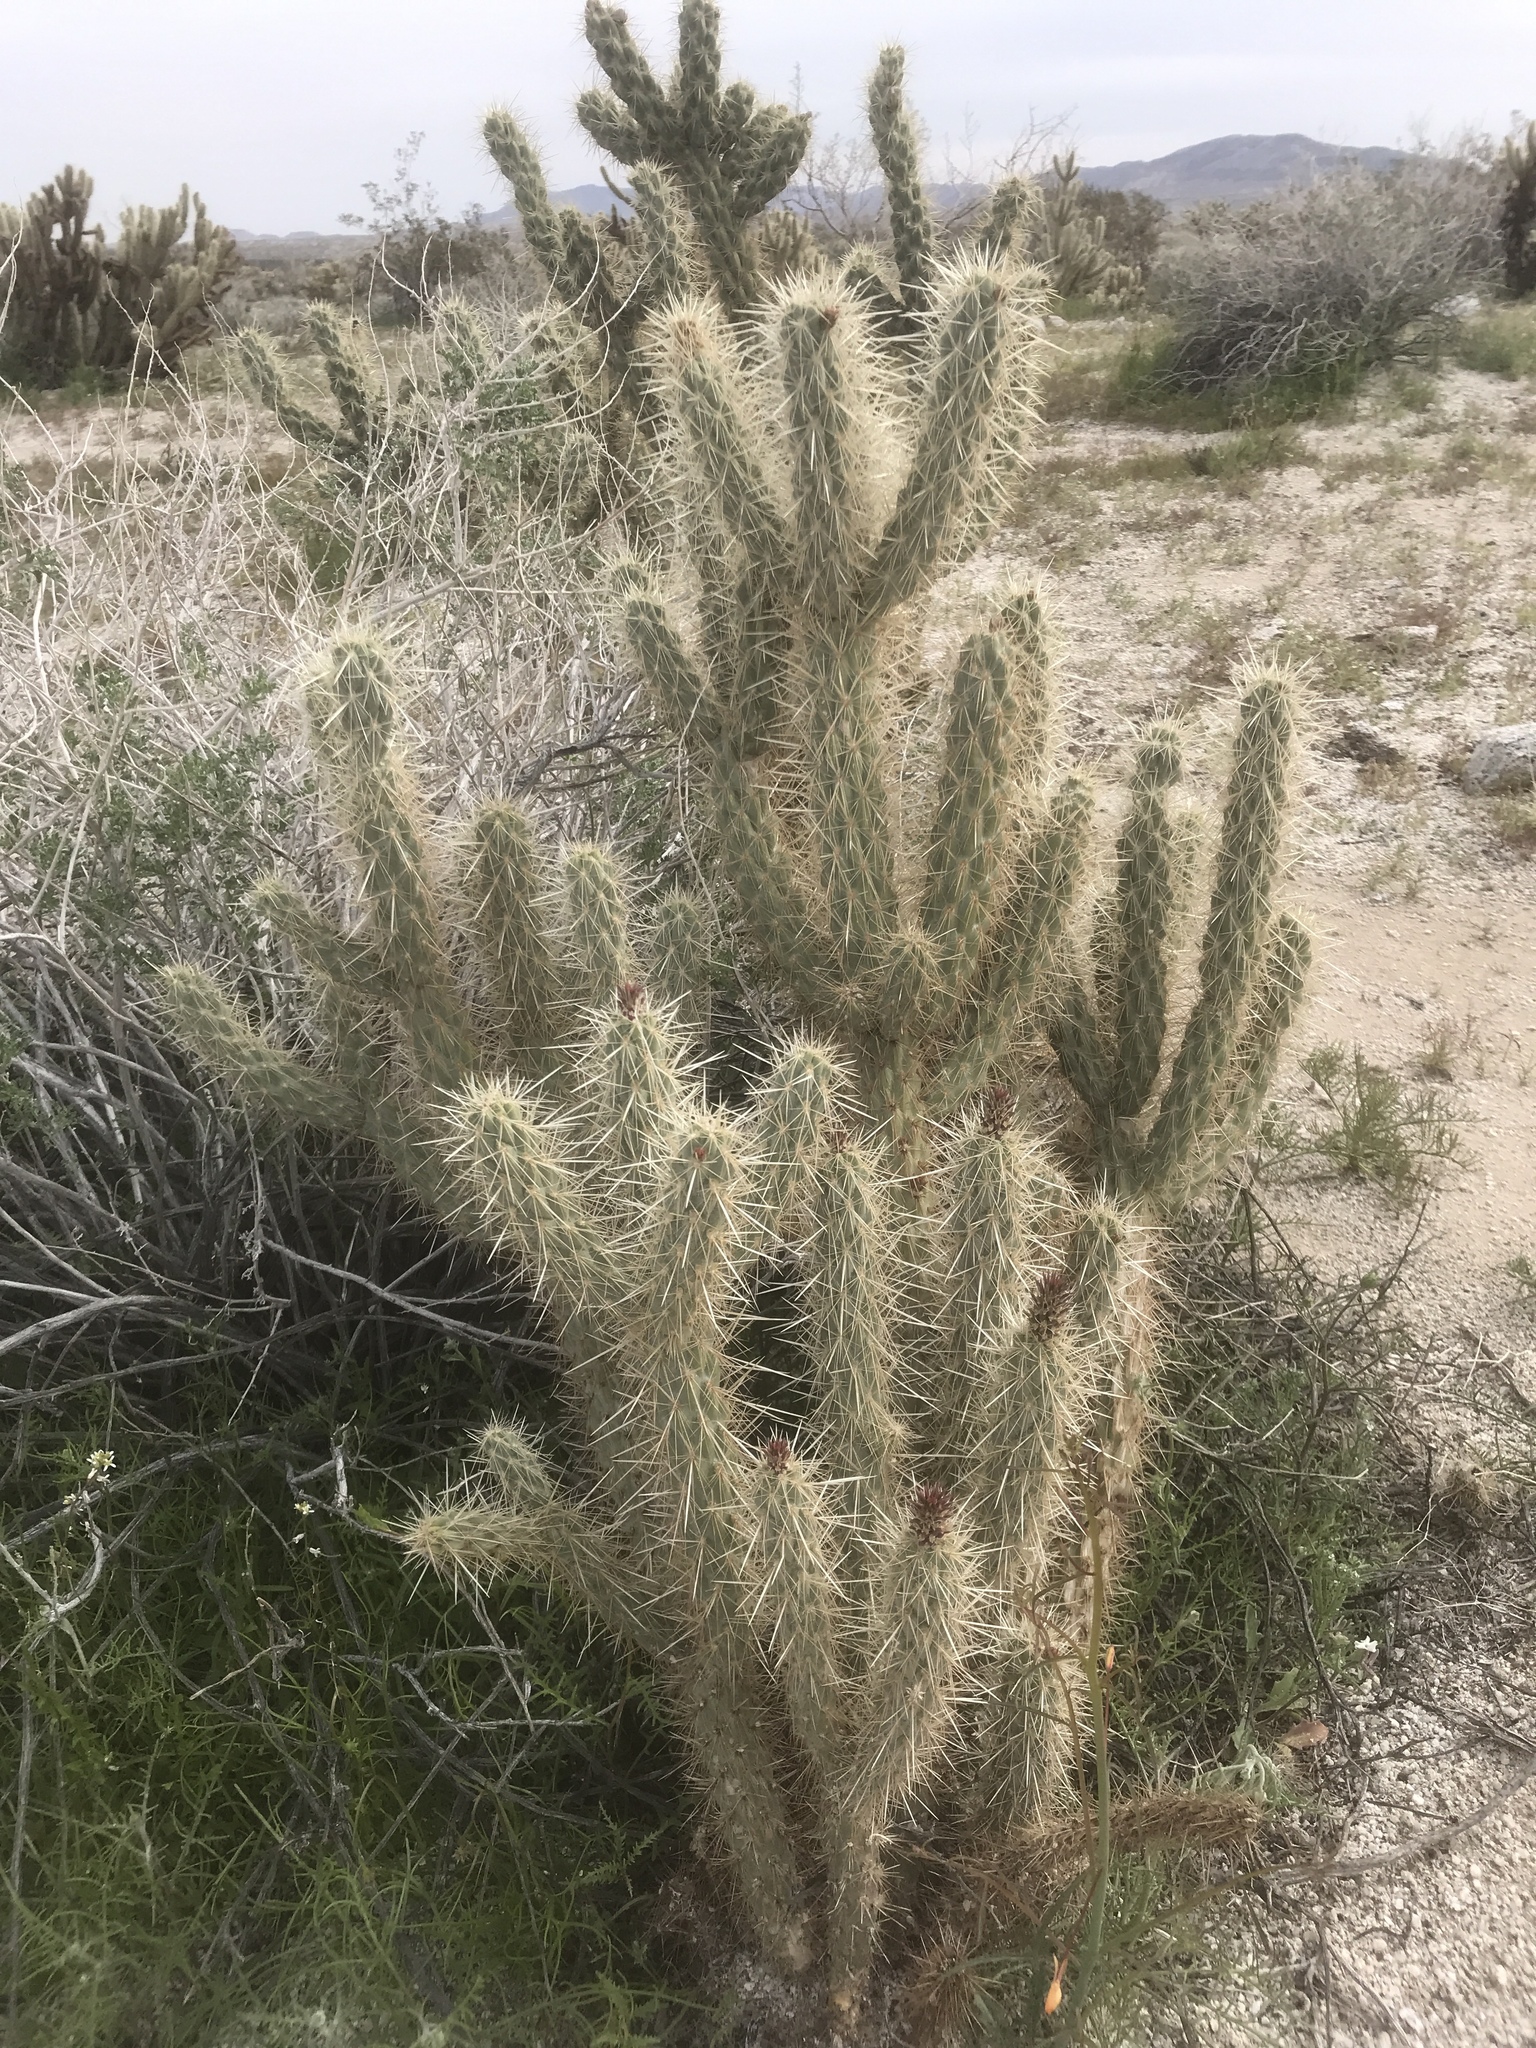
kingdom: Plantae
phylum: Tracheophyta
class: Magnoliopsida
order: Caryophyllales
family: Cactaceae
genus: Cylindropuntia
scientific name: Cylindropuntia ganderi
